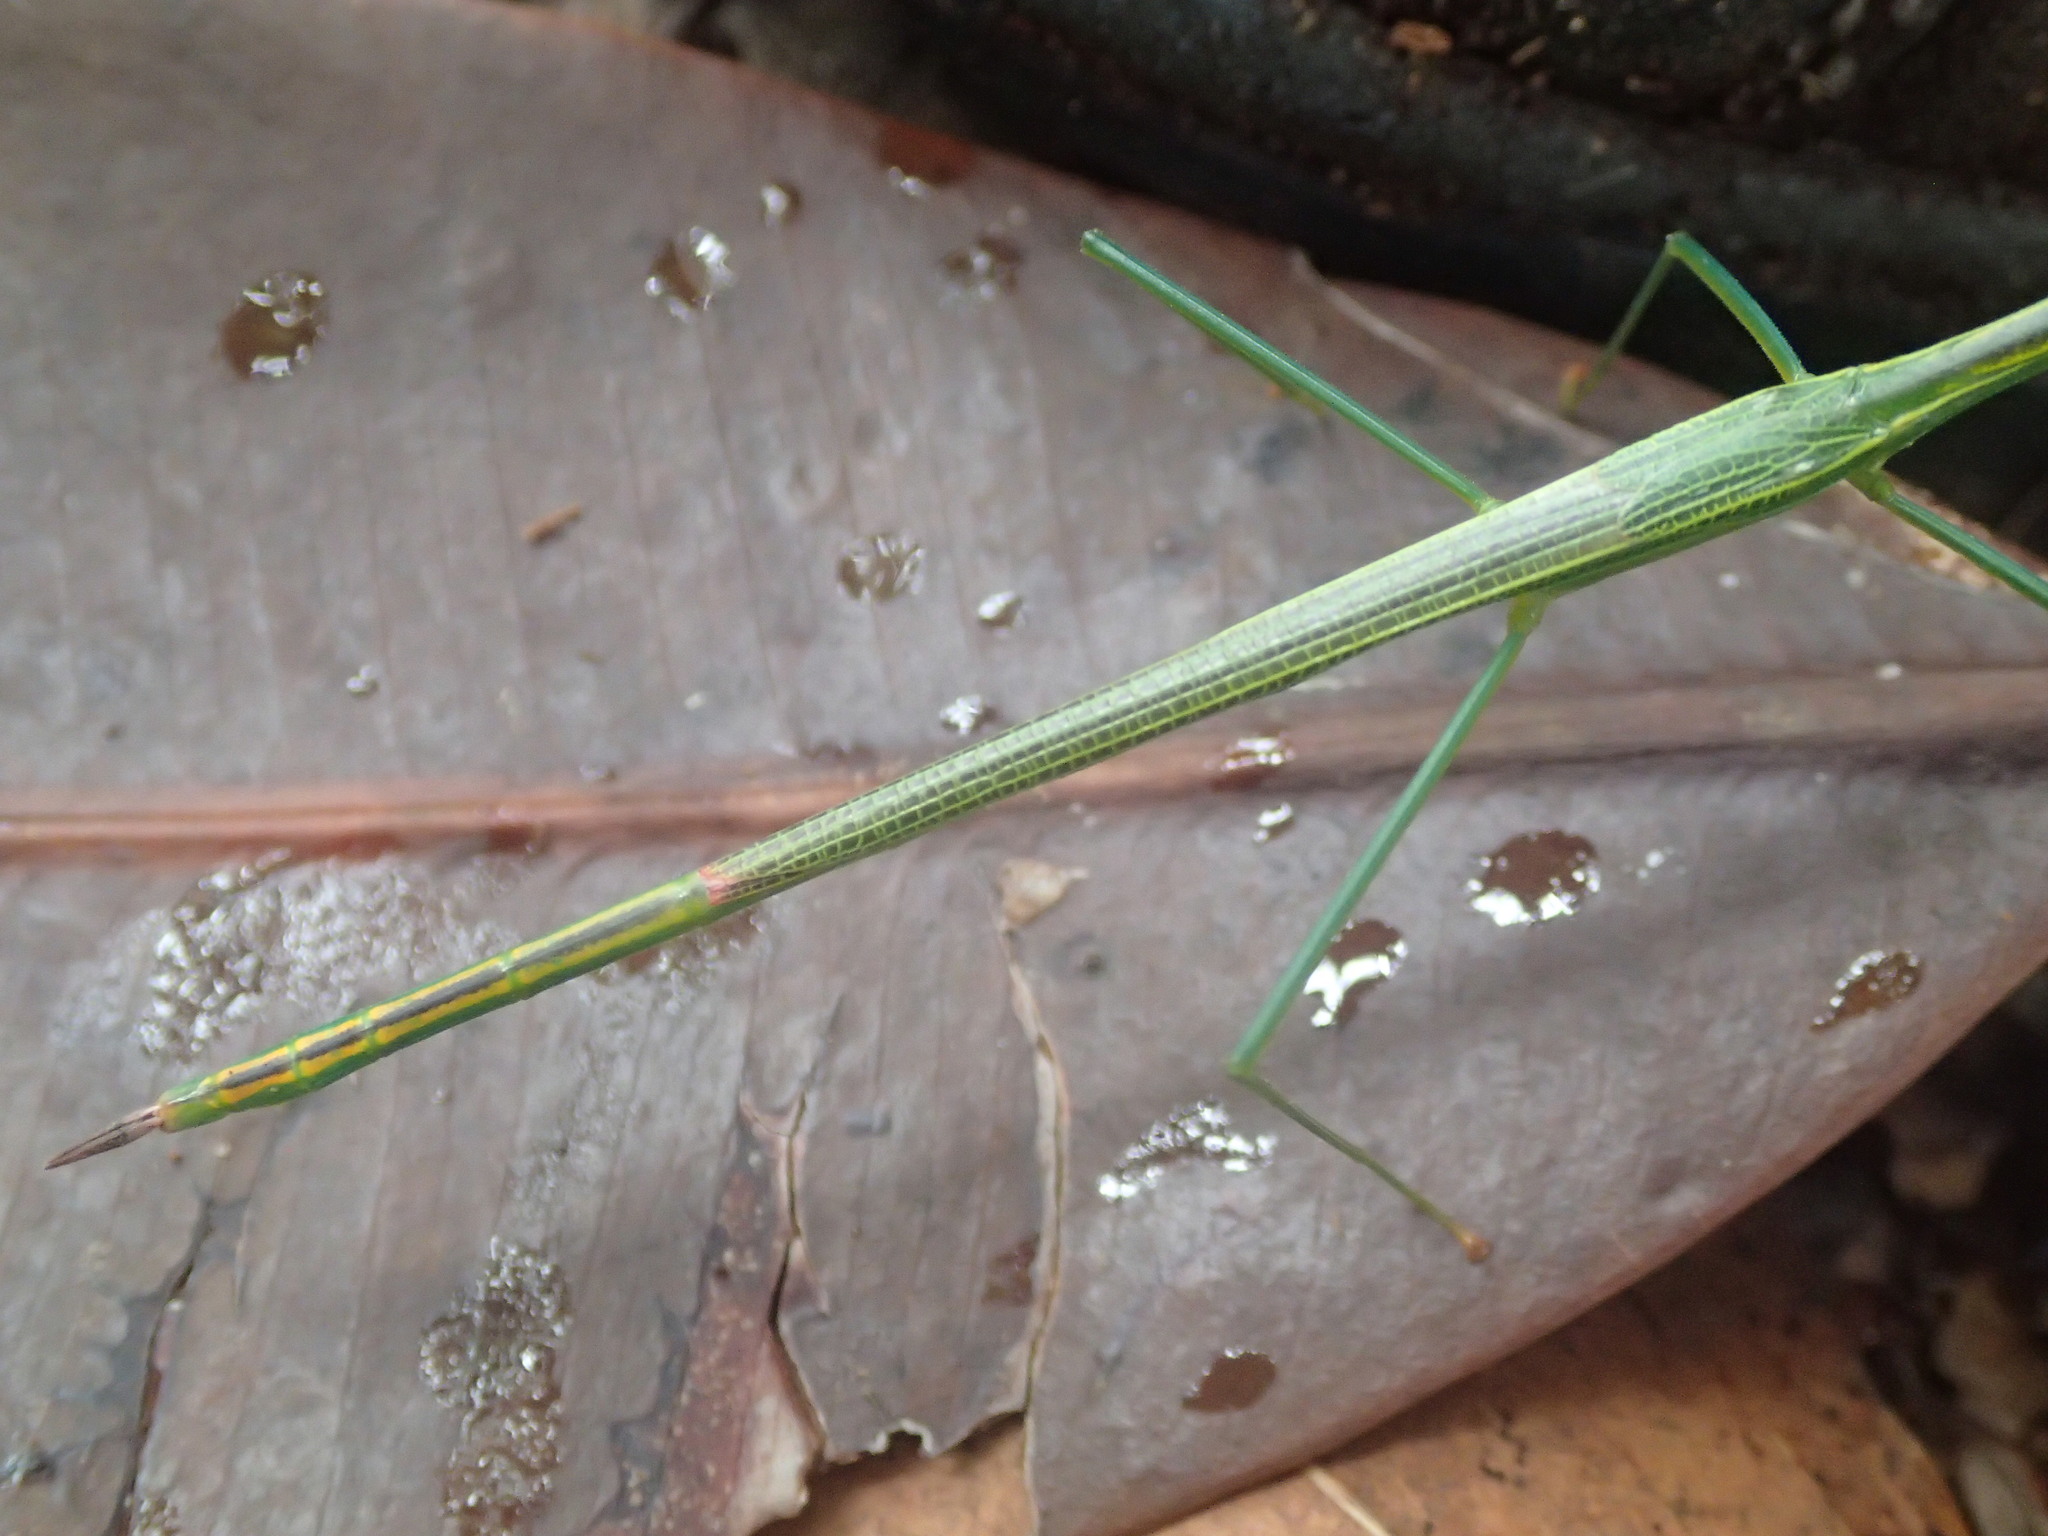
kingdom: Animalia
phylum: Arthropoda
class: Insecta
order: Phasmida
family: Phasmatidae
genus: Graeffea
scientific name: Graeffea seychellensis
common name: Seychelles palm stick insect
